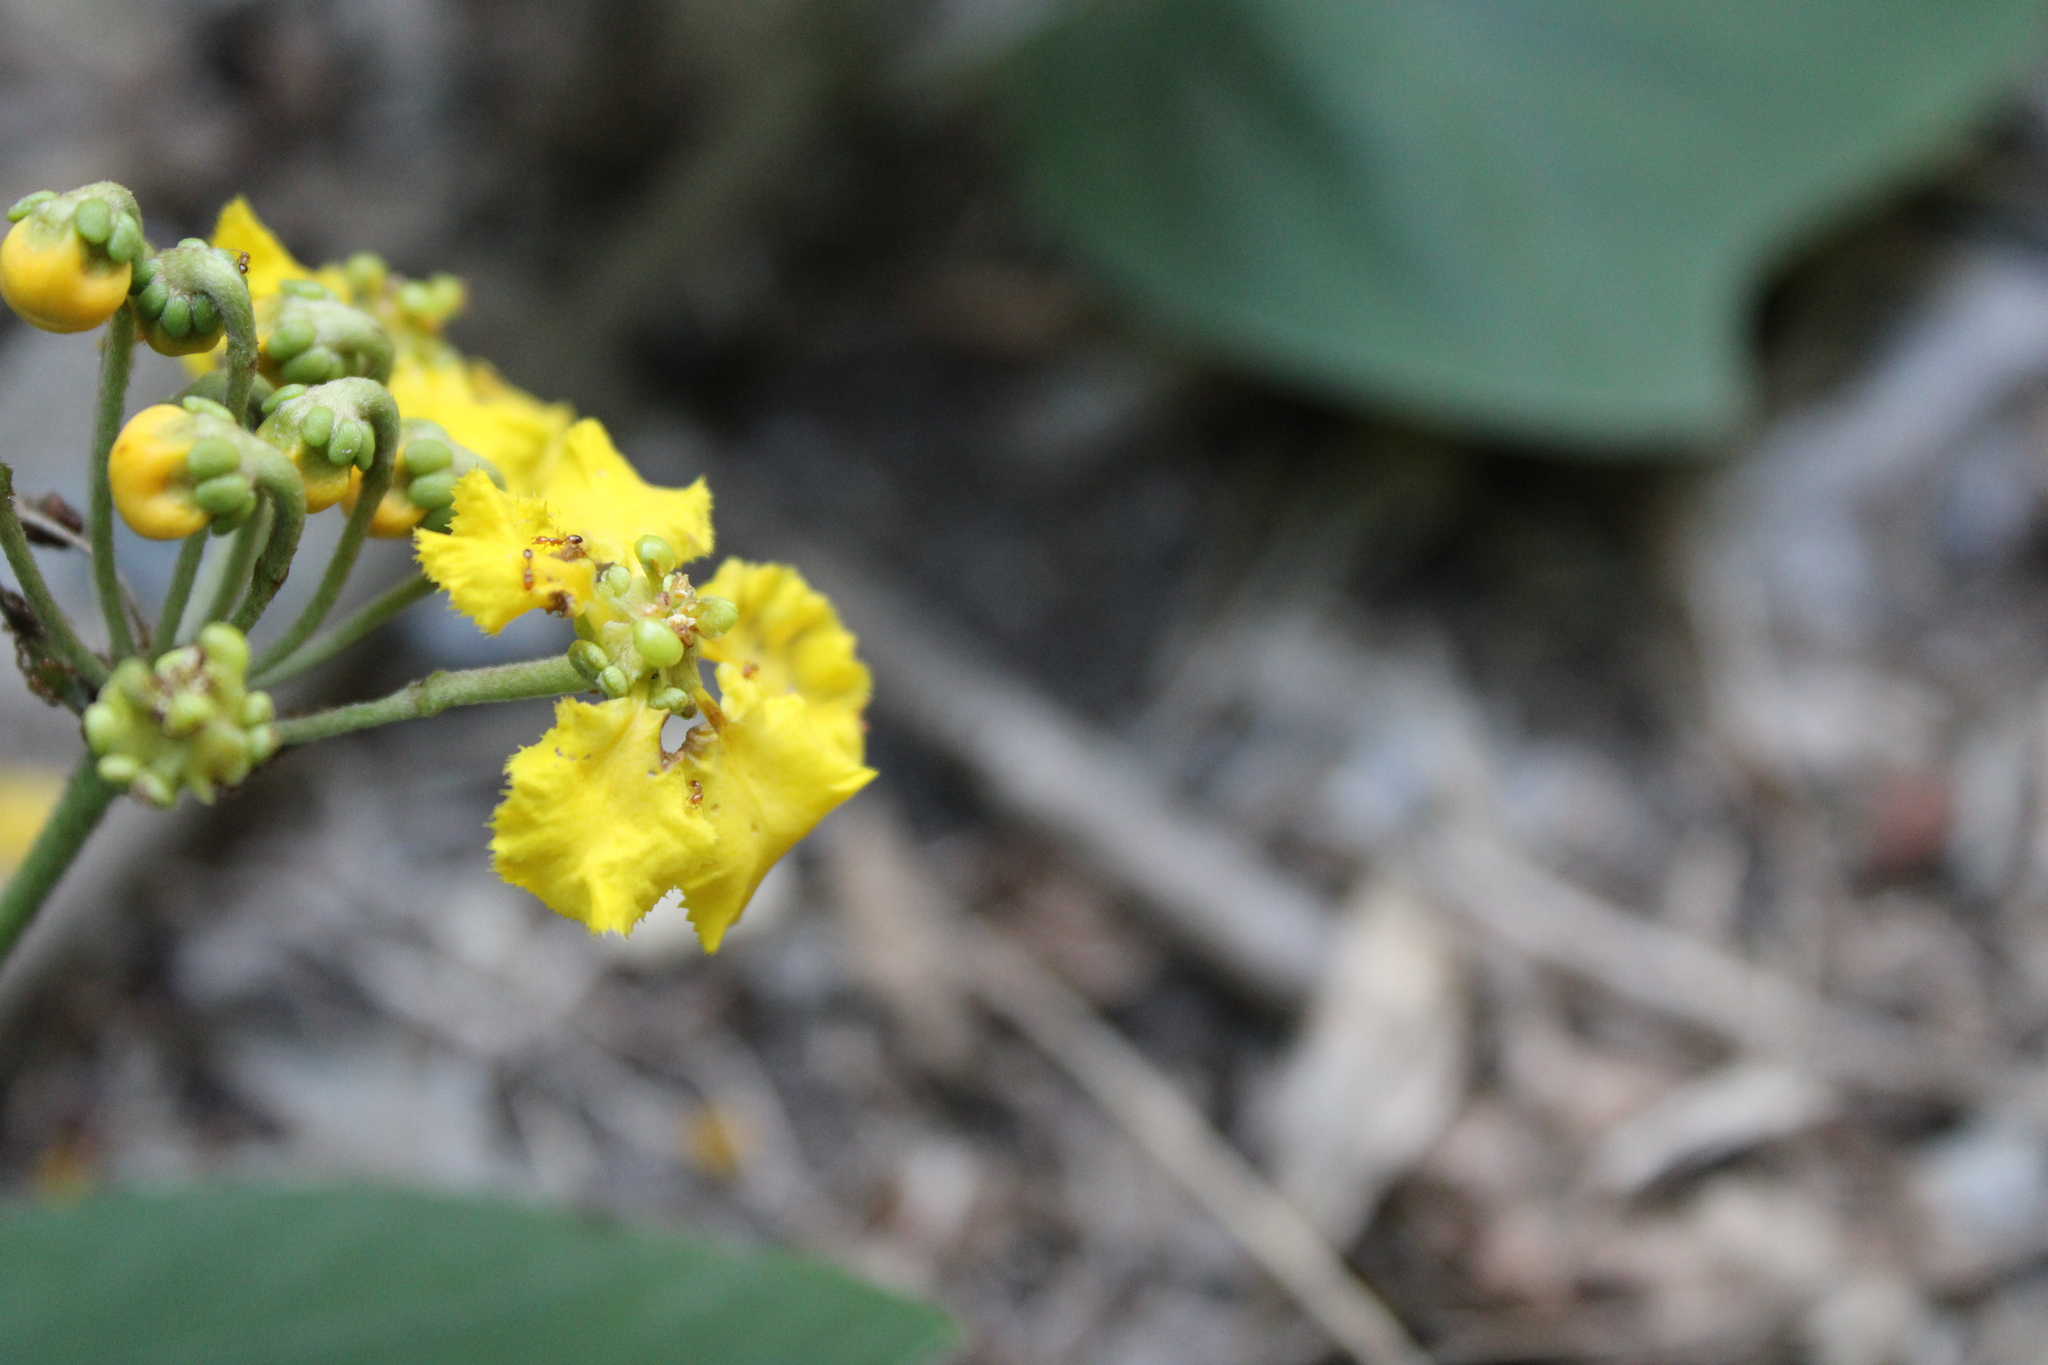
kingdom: Plantae
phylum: Tracheophyta
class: Magnoliopsida
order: Malpighiales
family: Malpighiaceae
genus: Stigmaphyllon
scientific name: Stigmaphyllon bonariense
